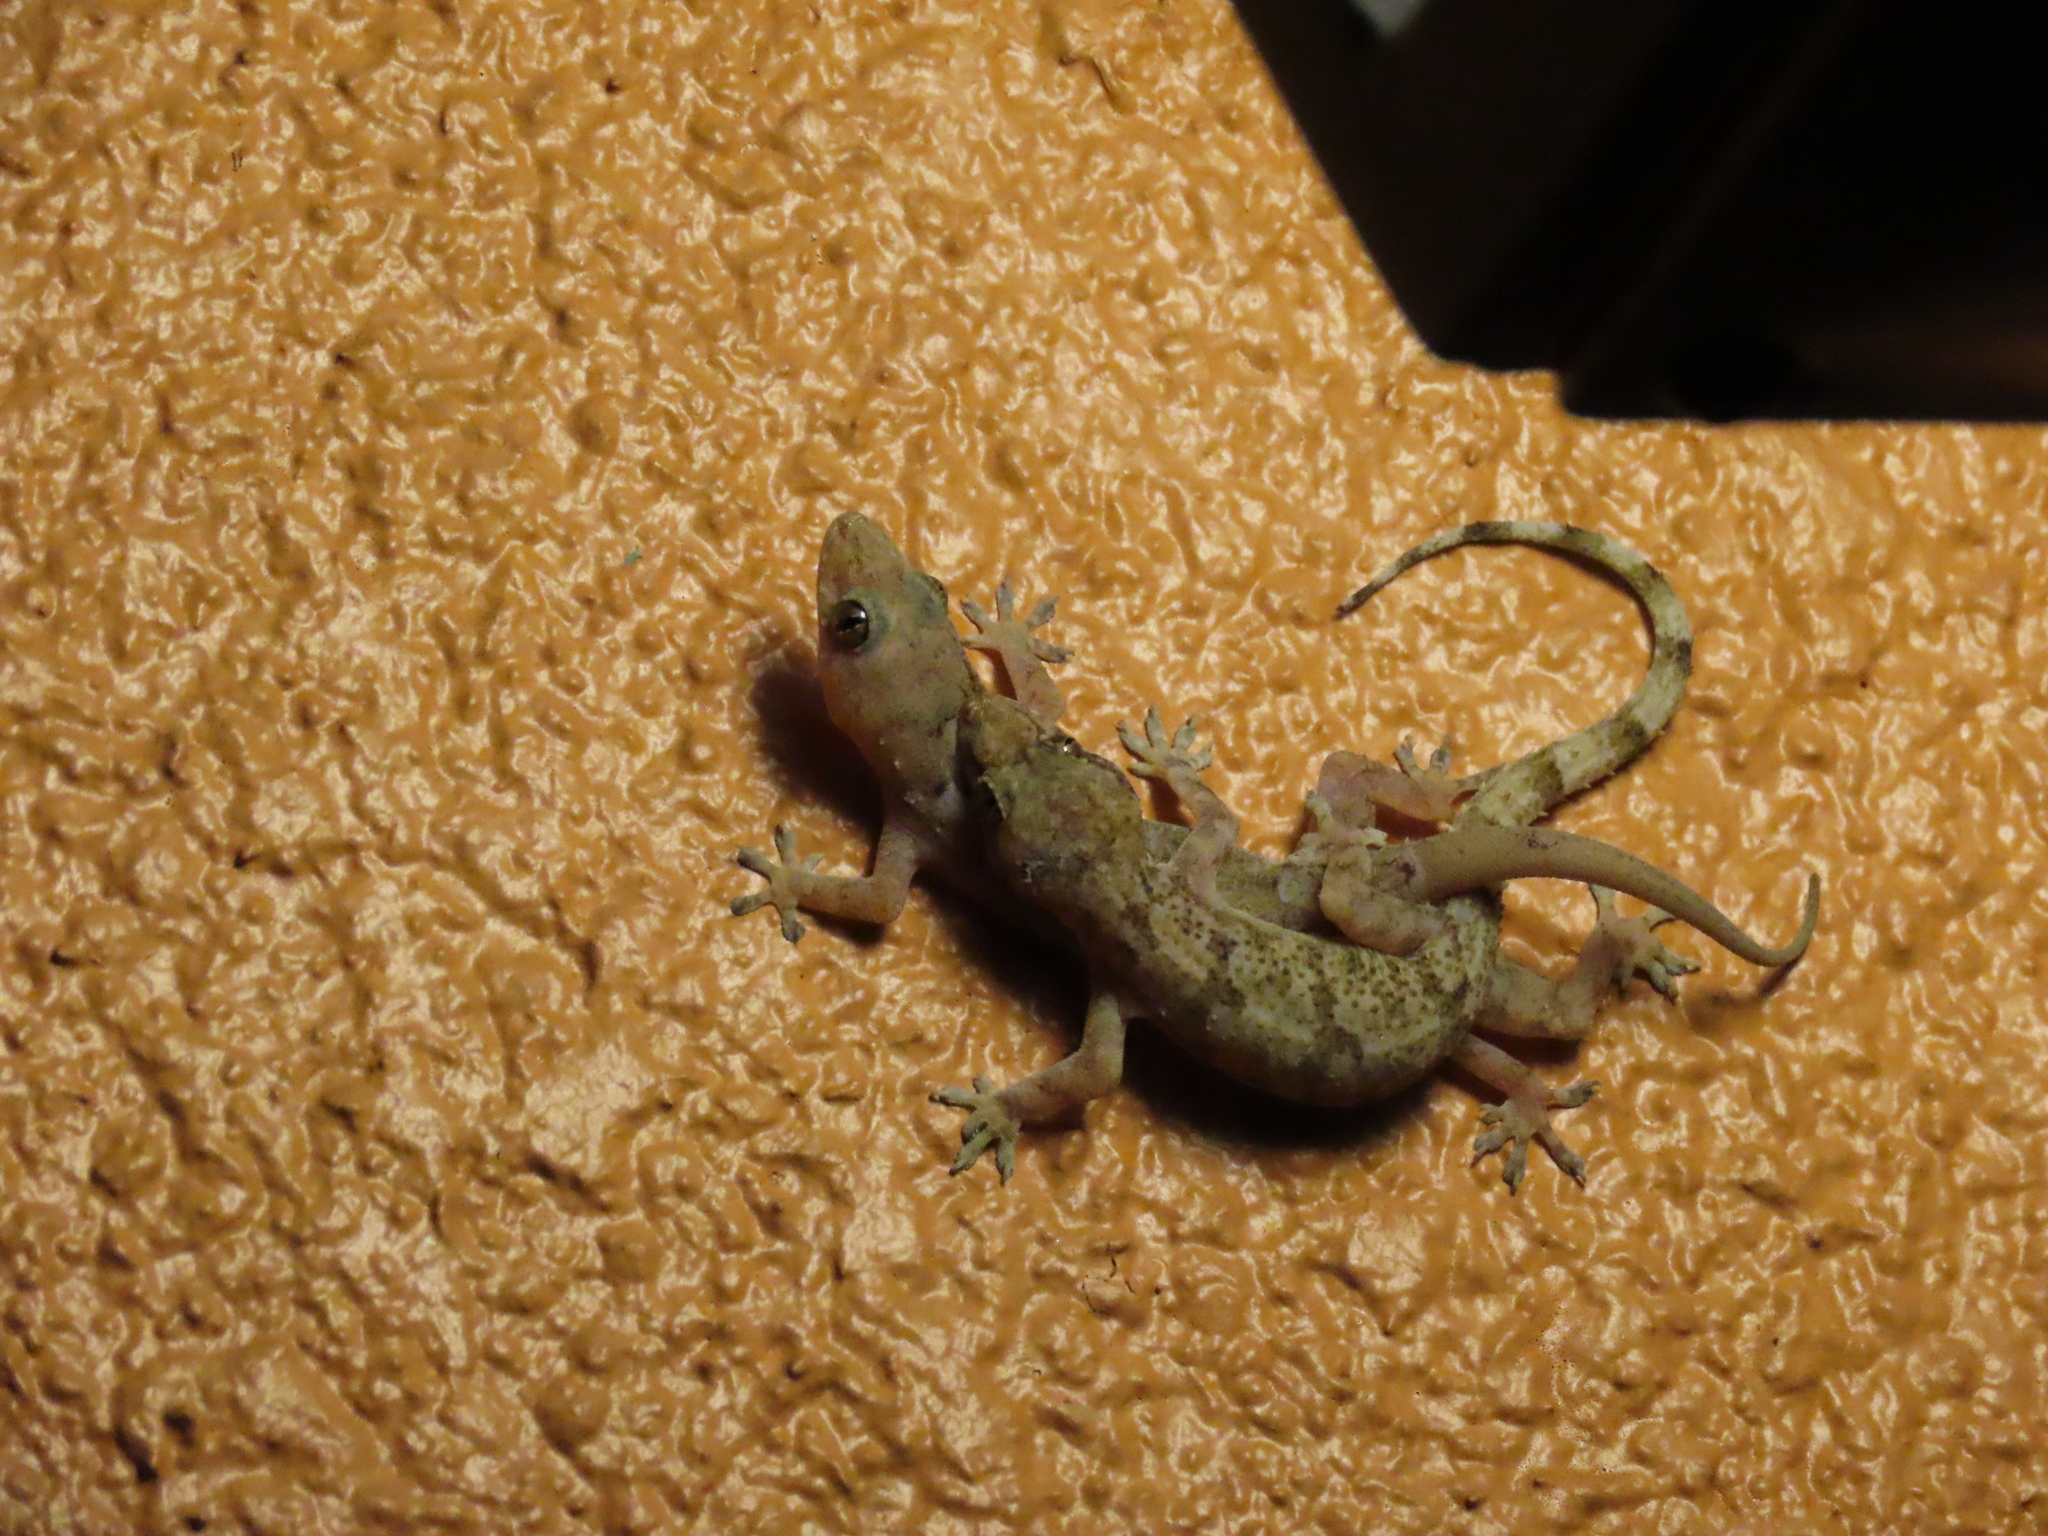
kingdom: Animalia
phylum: Chordata
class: Squamata
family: Gekkonidae
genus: Hemidactylus
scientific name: Hemidactylus mabouia
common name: House gecko
